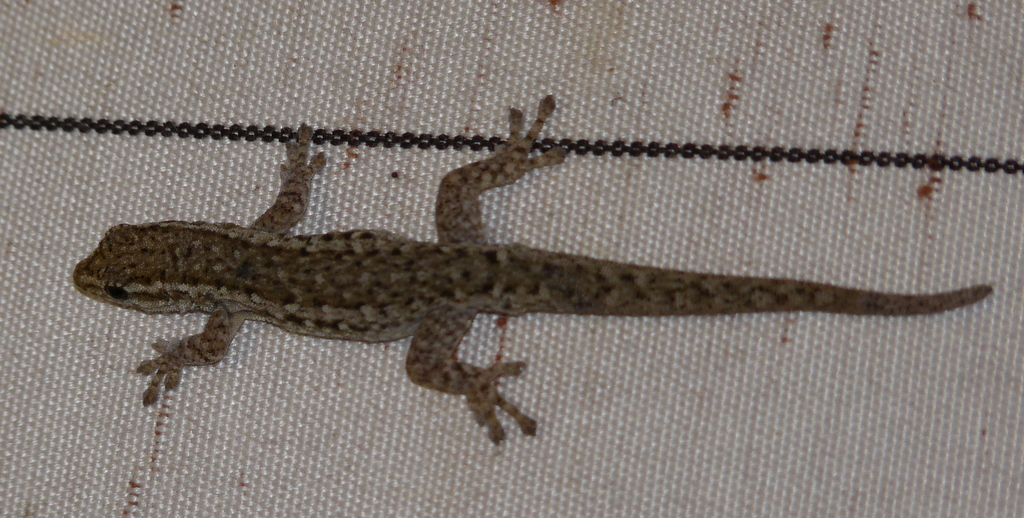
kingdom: Animalia
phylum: Chordata
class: Squamata
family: Gekkonidae
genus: Lygodactylus
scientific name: Lygodactylus capensis
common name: Cape dwarf gecko
